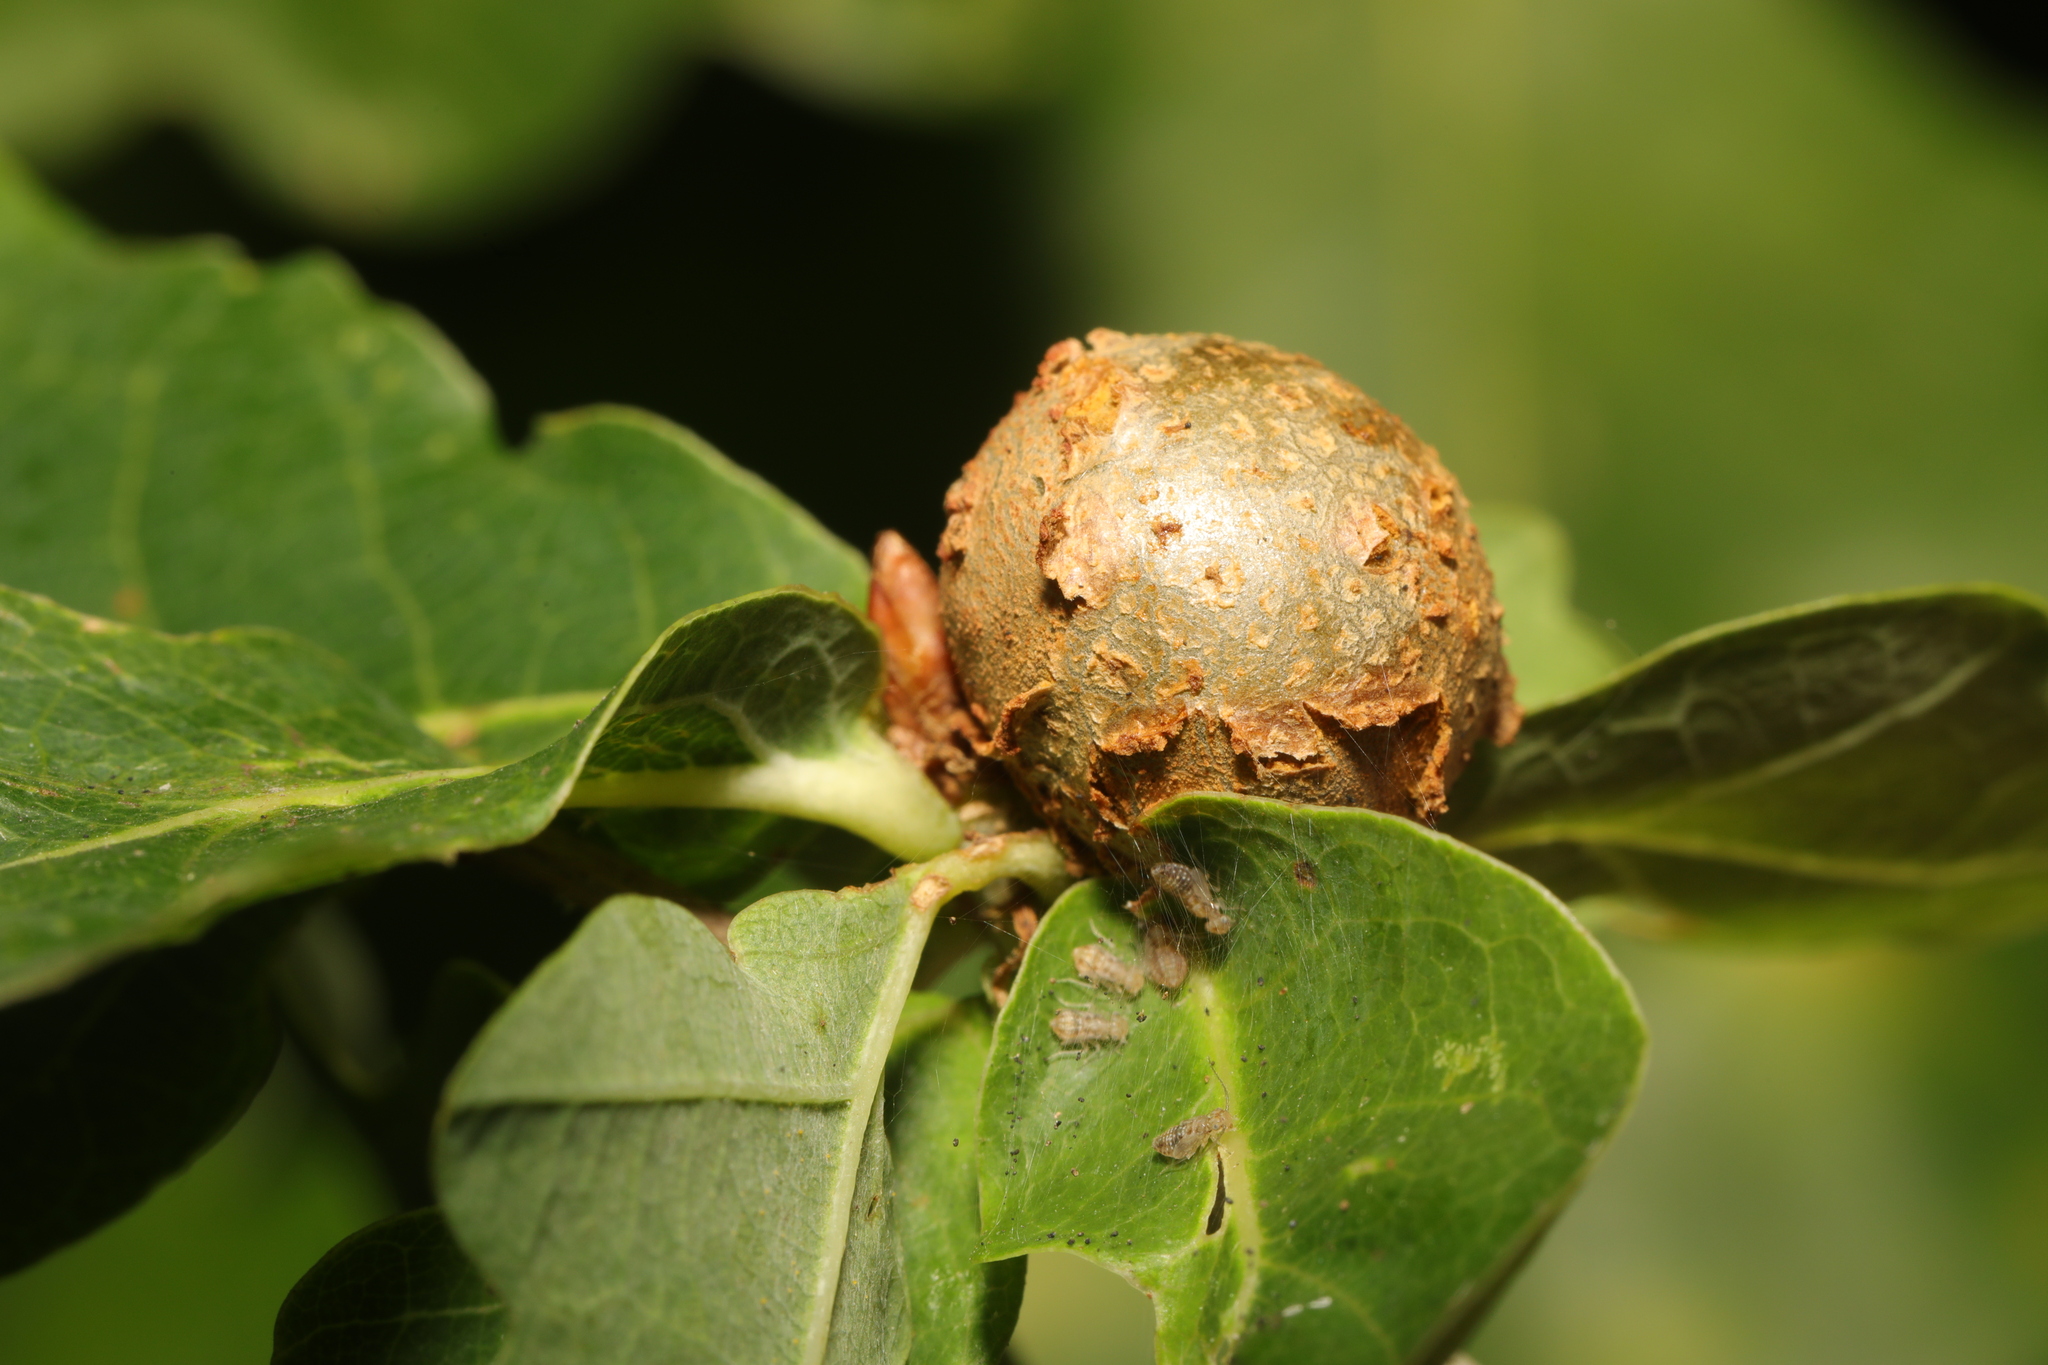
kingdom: Animalia
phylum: Arthropoda
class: Insecta
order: Hymenoptera
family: Cynipidae
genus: Andricus
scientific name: Andricus lignicolus
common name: Cola-nut gall
